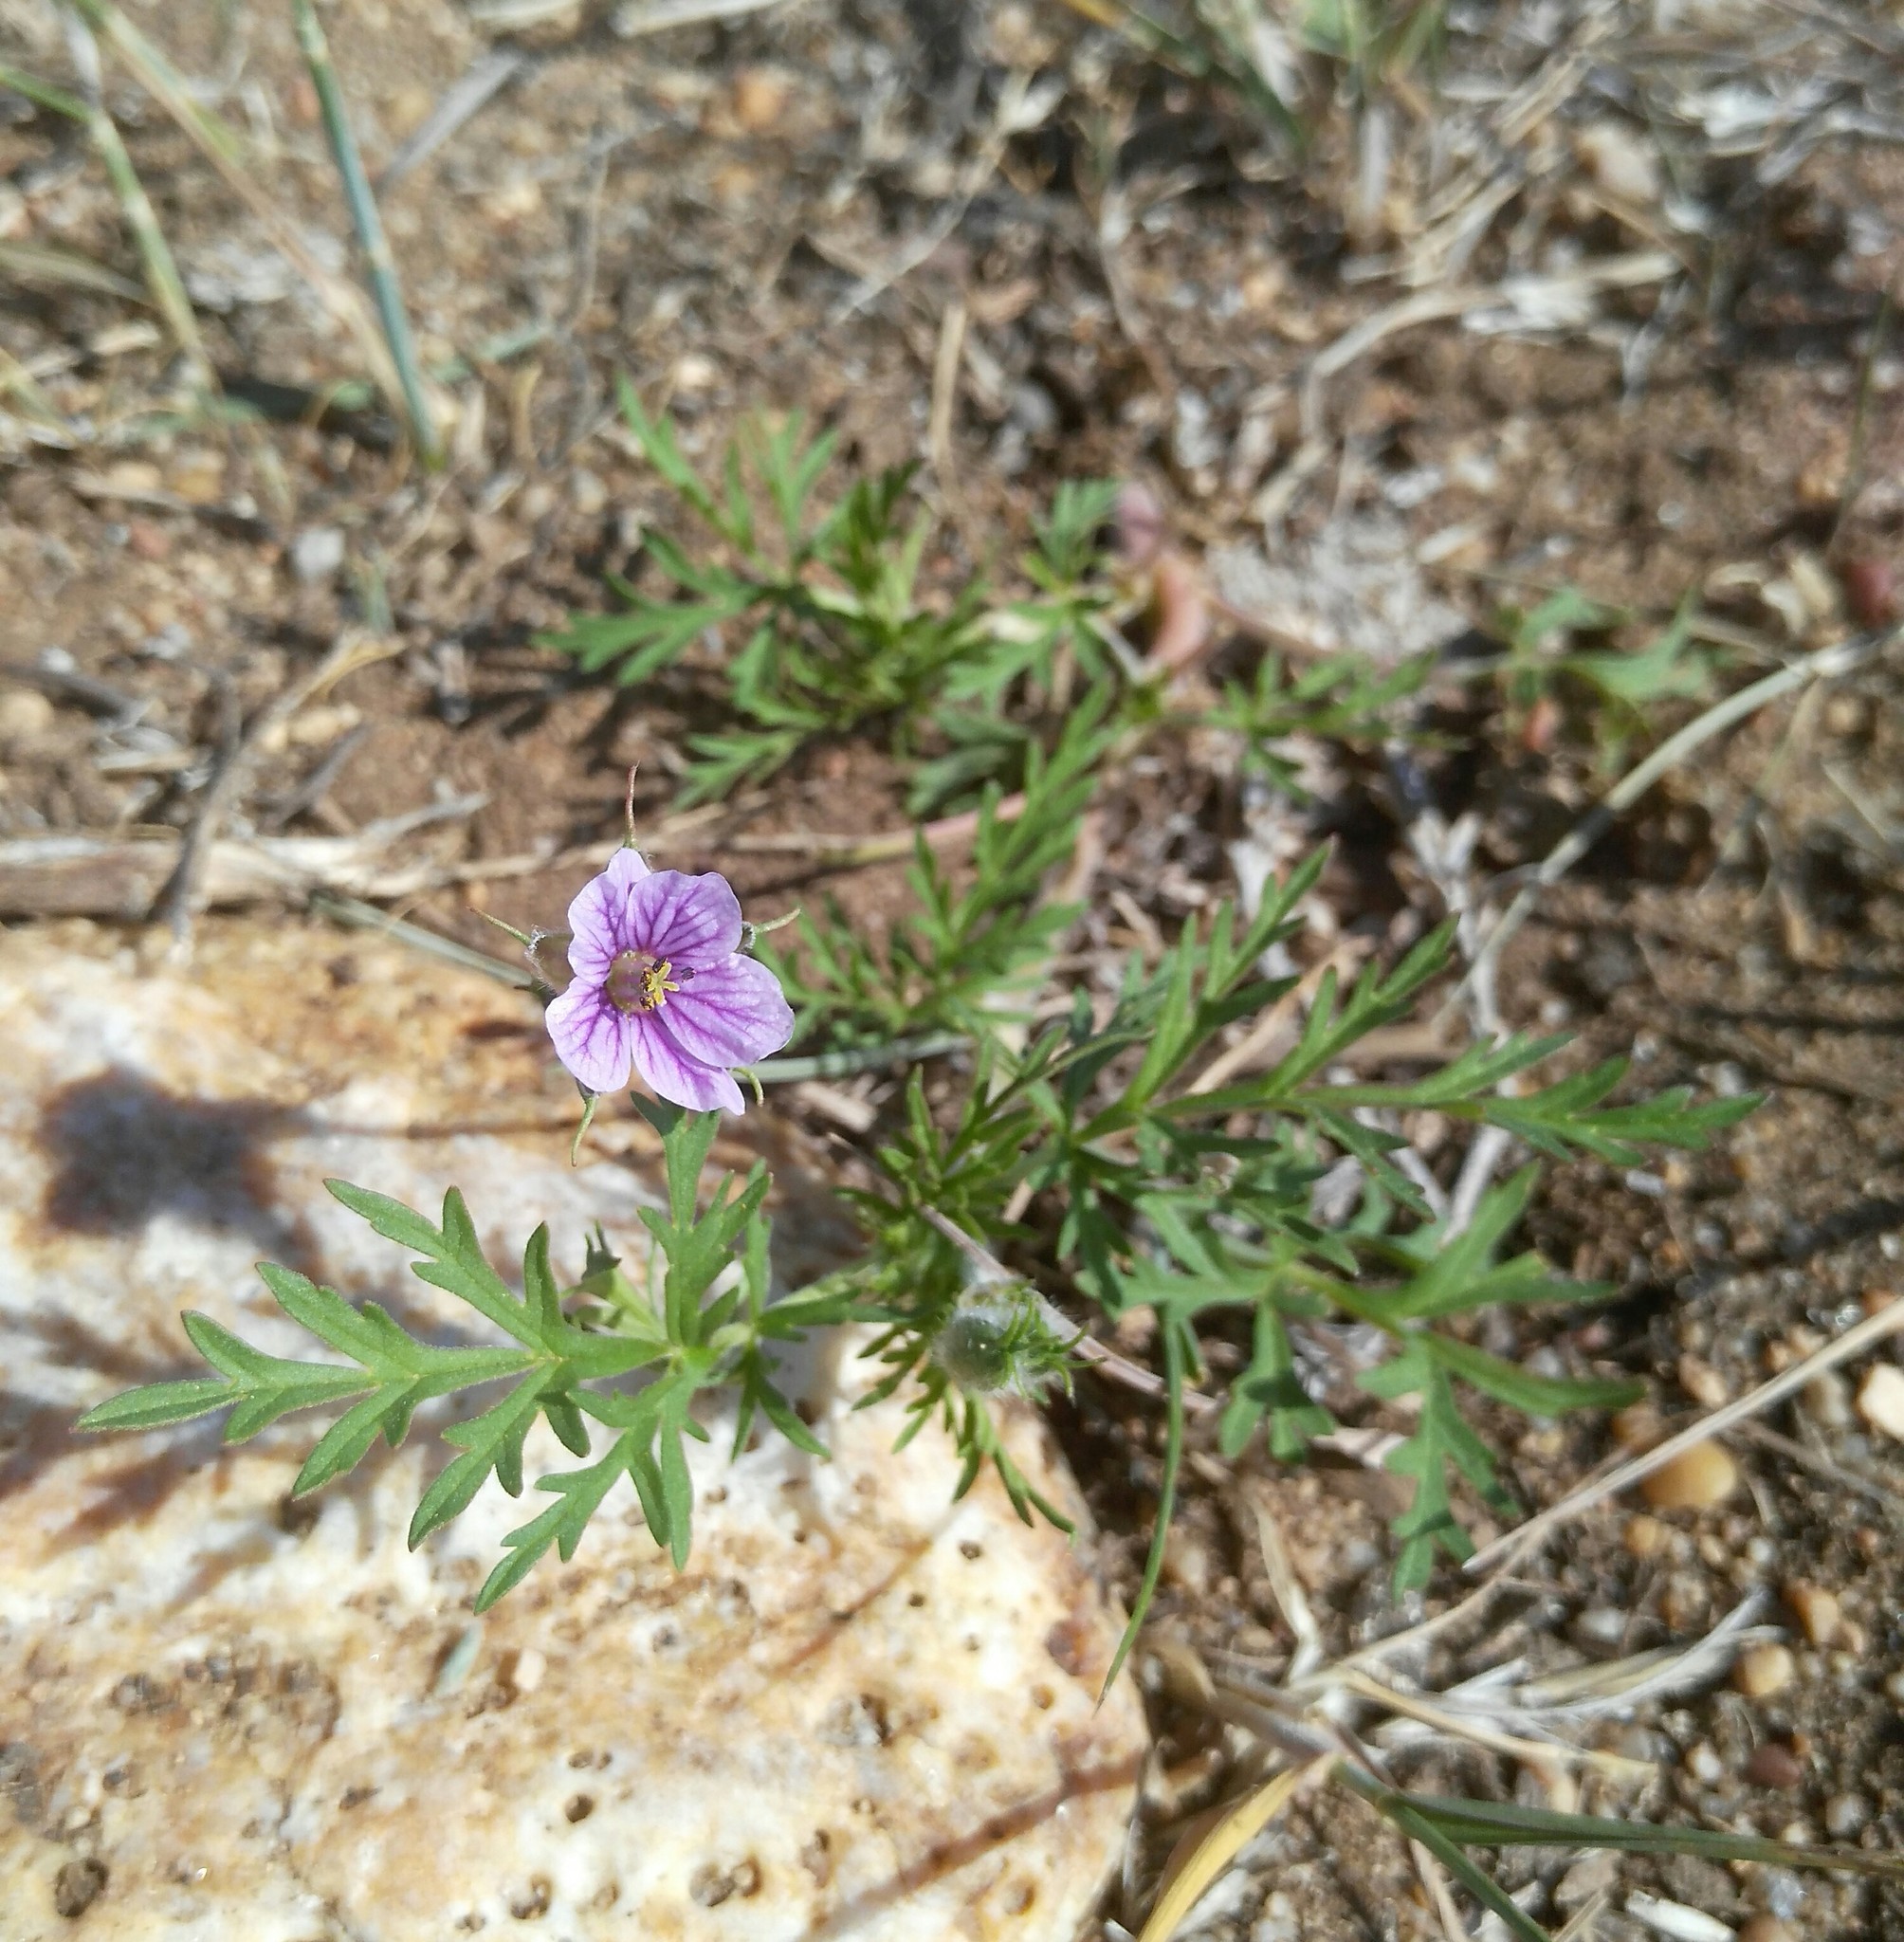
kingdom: Plantae
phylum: Tracheophyta
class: Magnoliopsida
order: Geraniales
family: Geraniaceae
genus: Erodium
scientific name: Erodium stephanianum
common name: Stephen's stork's bill
